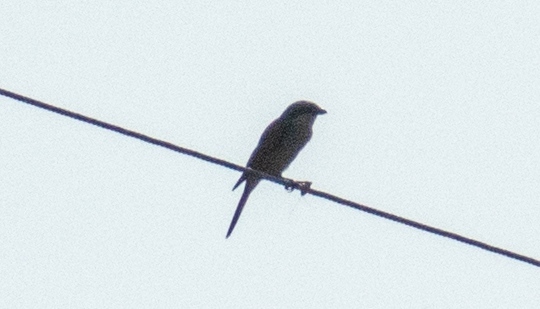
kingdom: Animalia
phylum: Chordata
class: Aves
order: Passeriformes
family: Laniidae
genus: Lanius
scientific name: Lanius collurio
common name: Red-backed shrike
